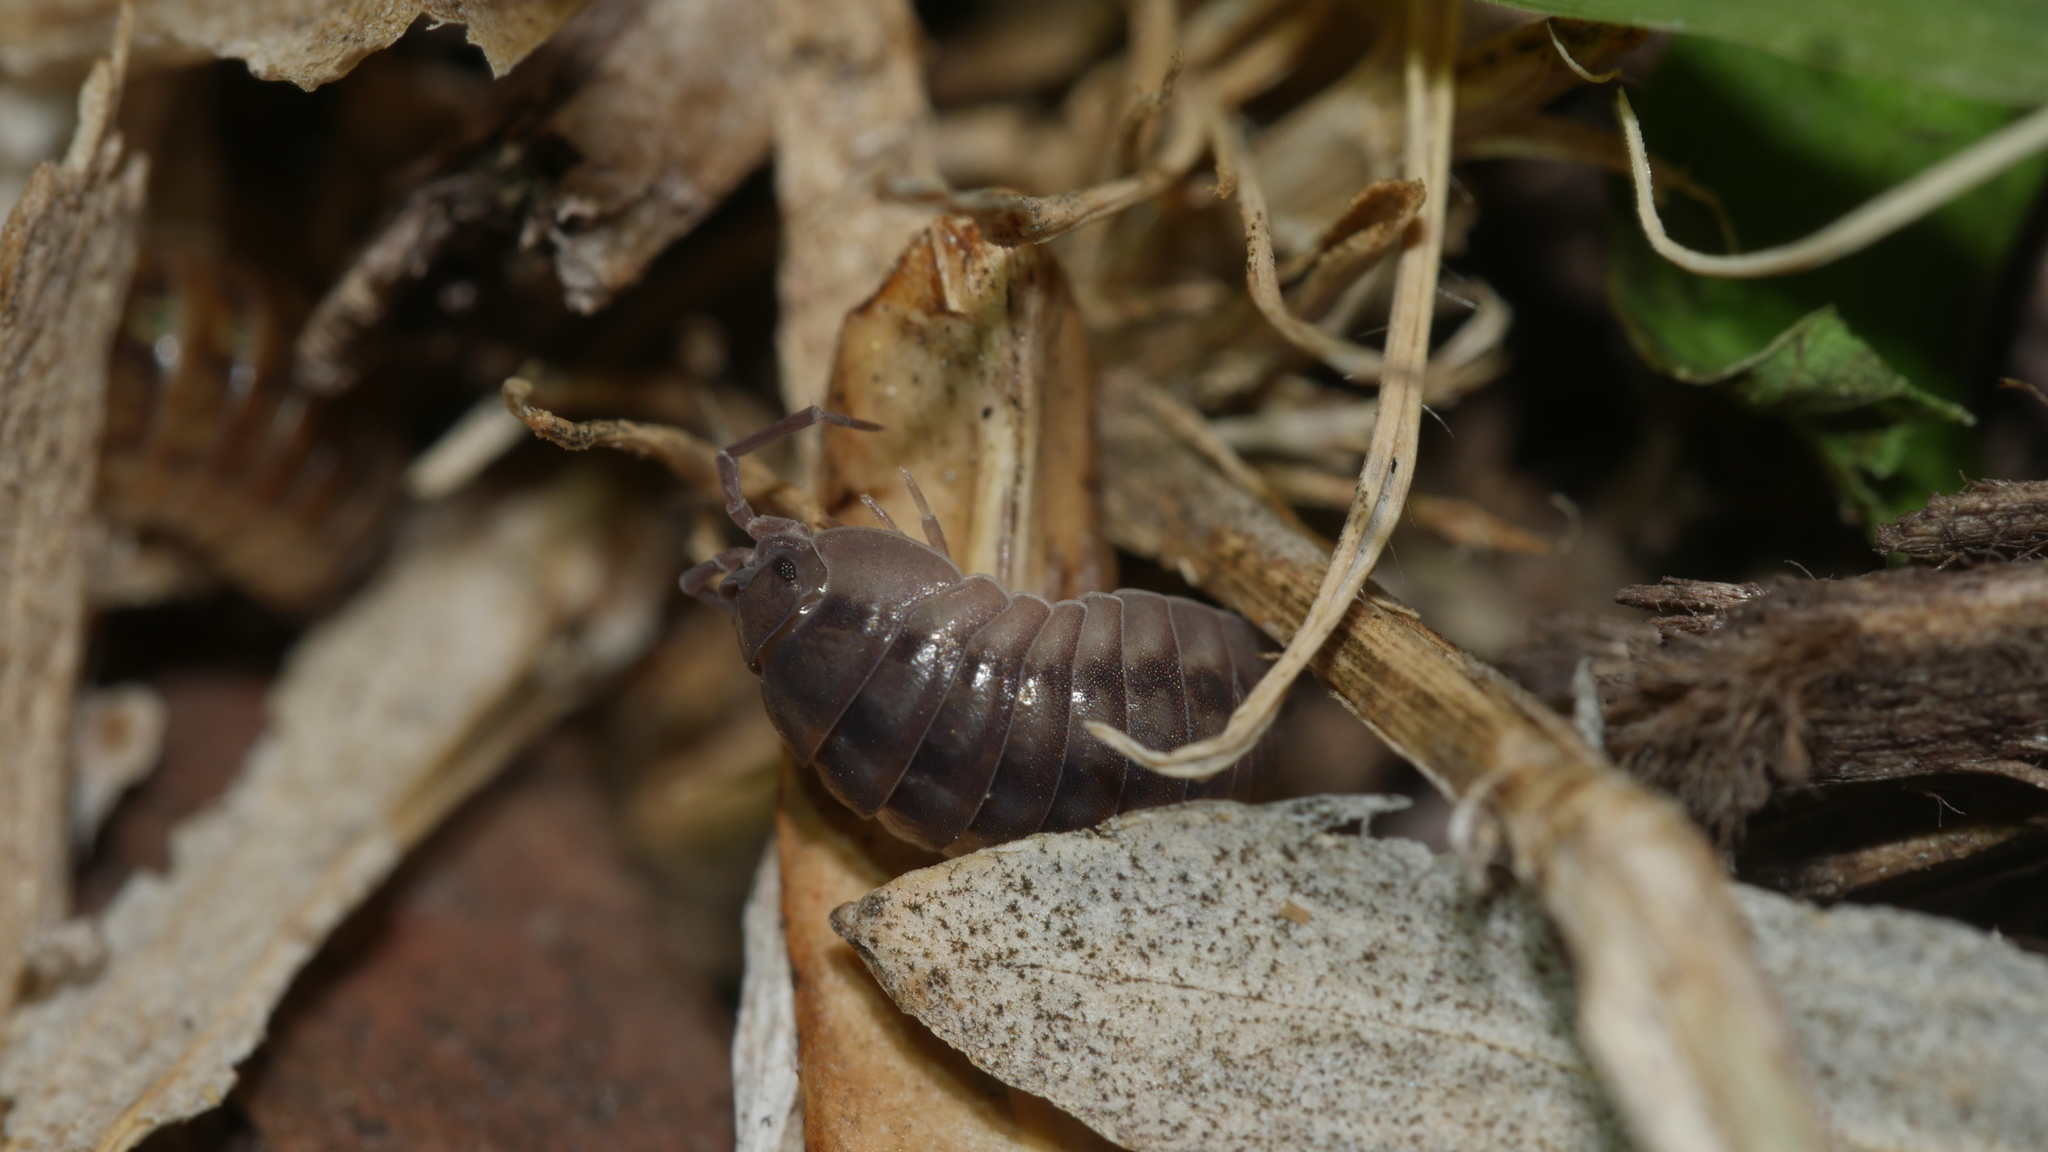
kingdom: Animalia
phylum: Arthropoda
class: Malacostraca
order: Isopoda
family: Armadillidiidae
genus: Armadillidium
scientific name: Armadillidium nasatum
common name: Isopod
